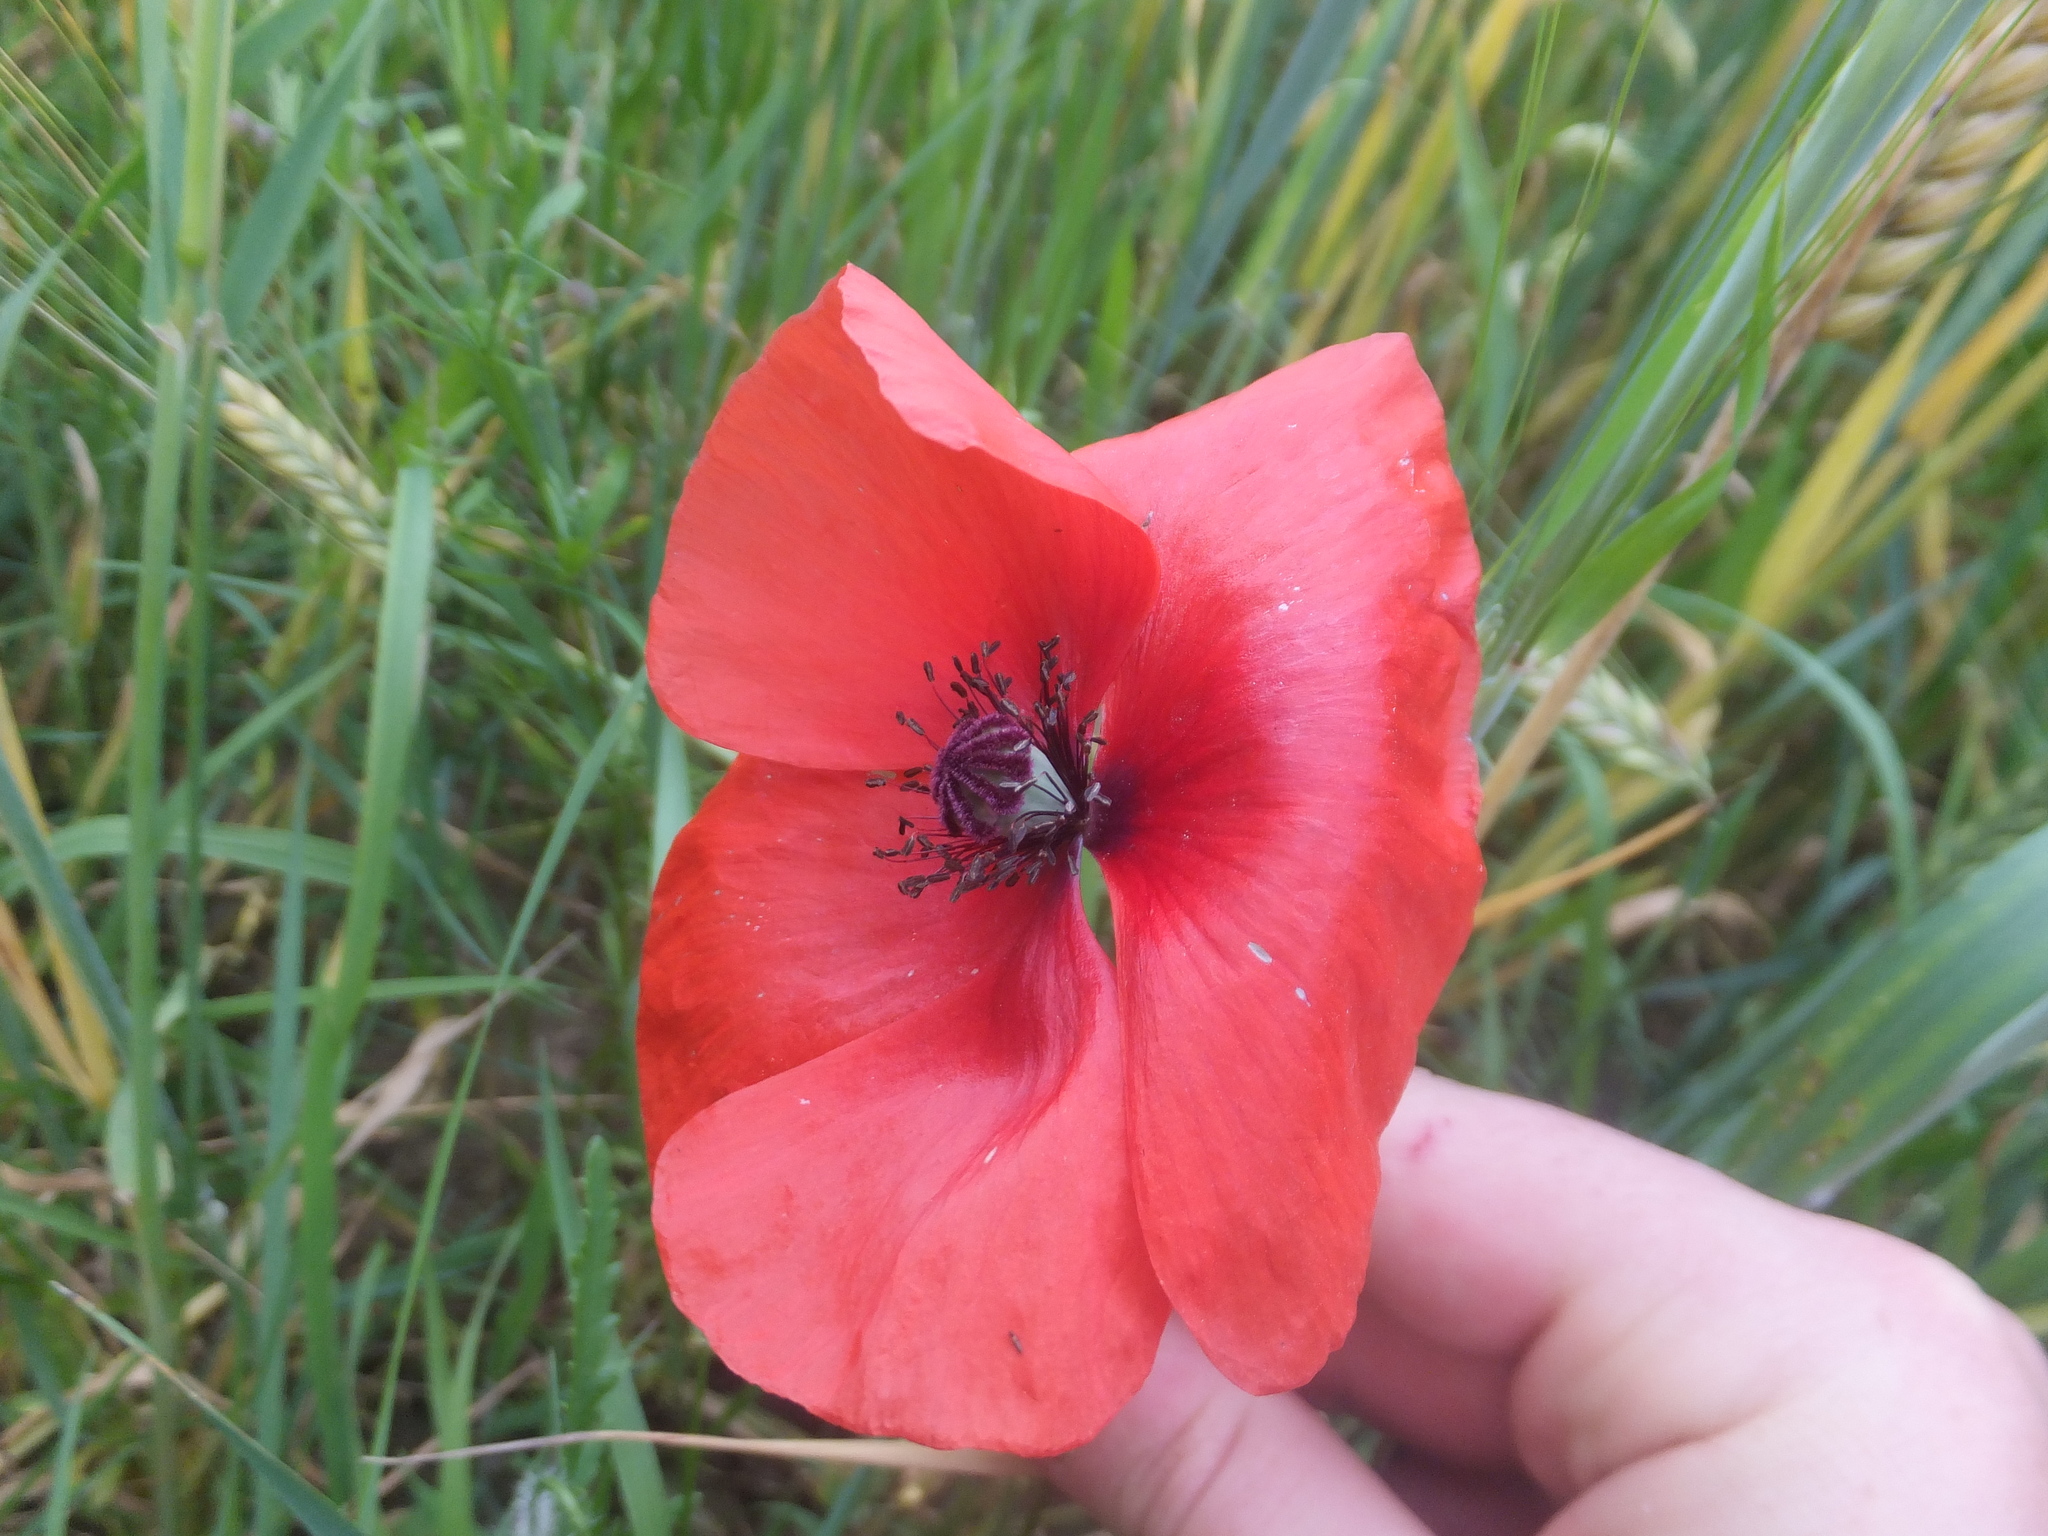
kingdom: Plantae
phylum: Tracheophyta
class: Magnoliopsida
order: Ranunculales
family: Papaveraceae
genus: Papaver
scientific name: Papaver rhoeas
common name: Corn poppy
